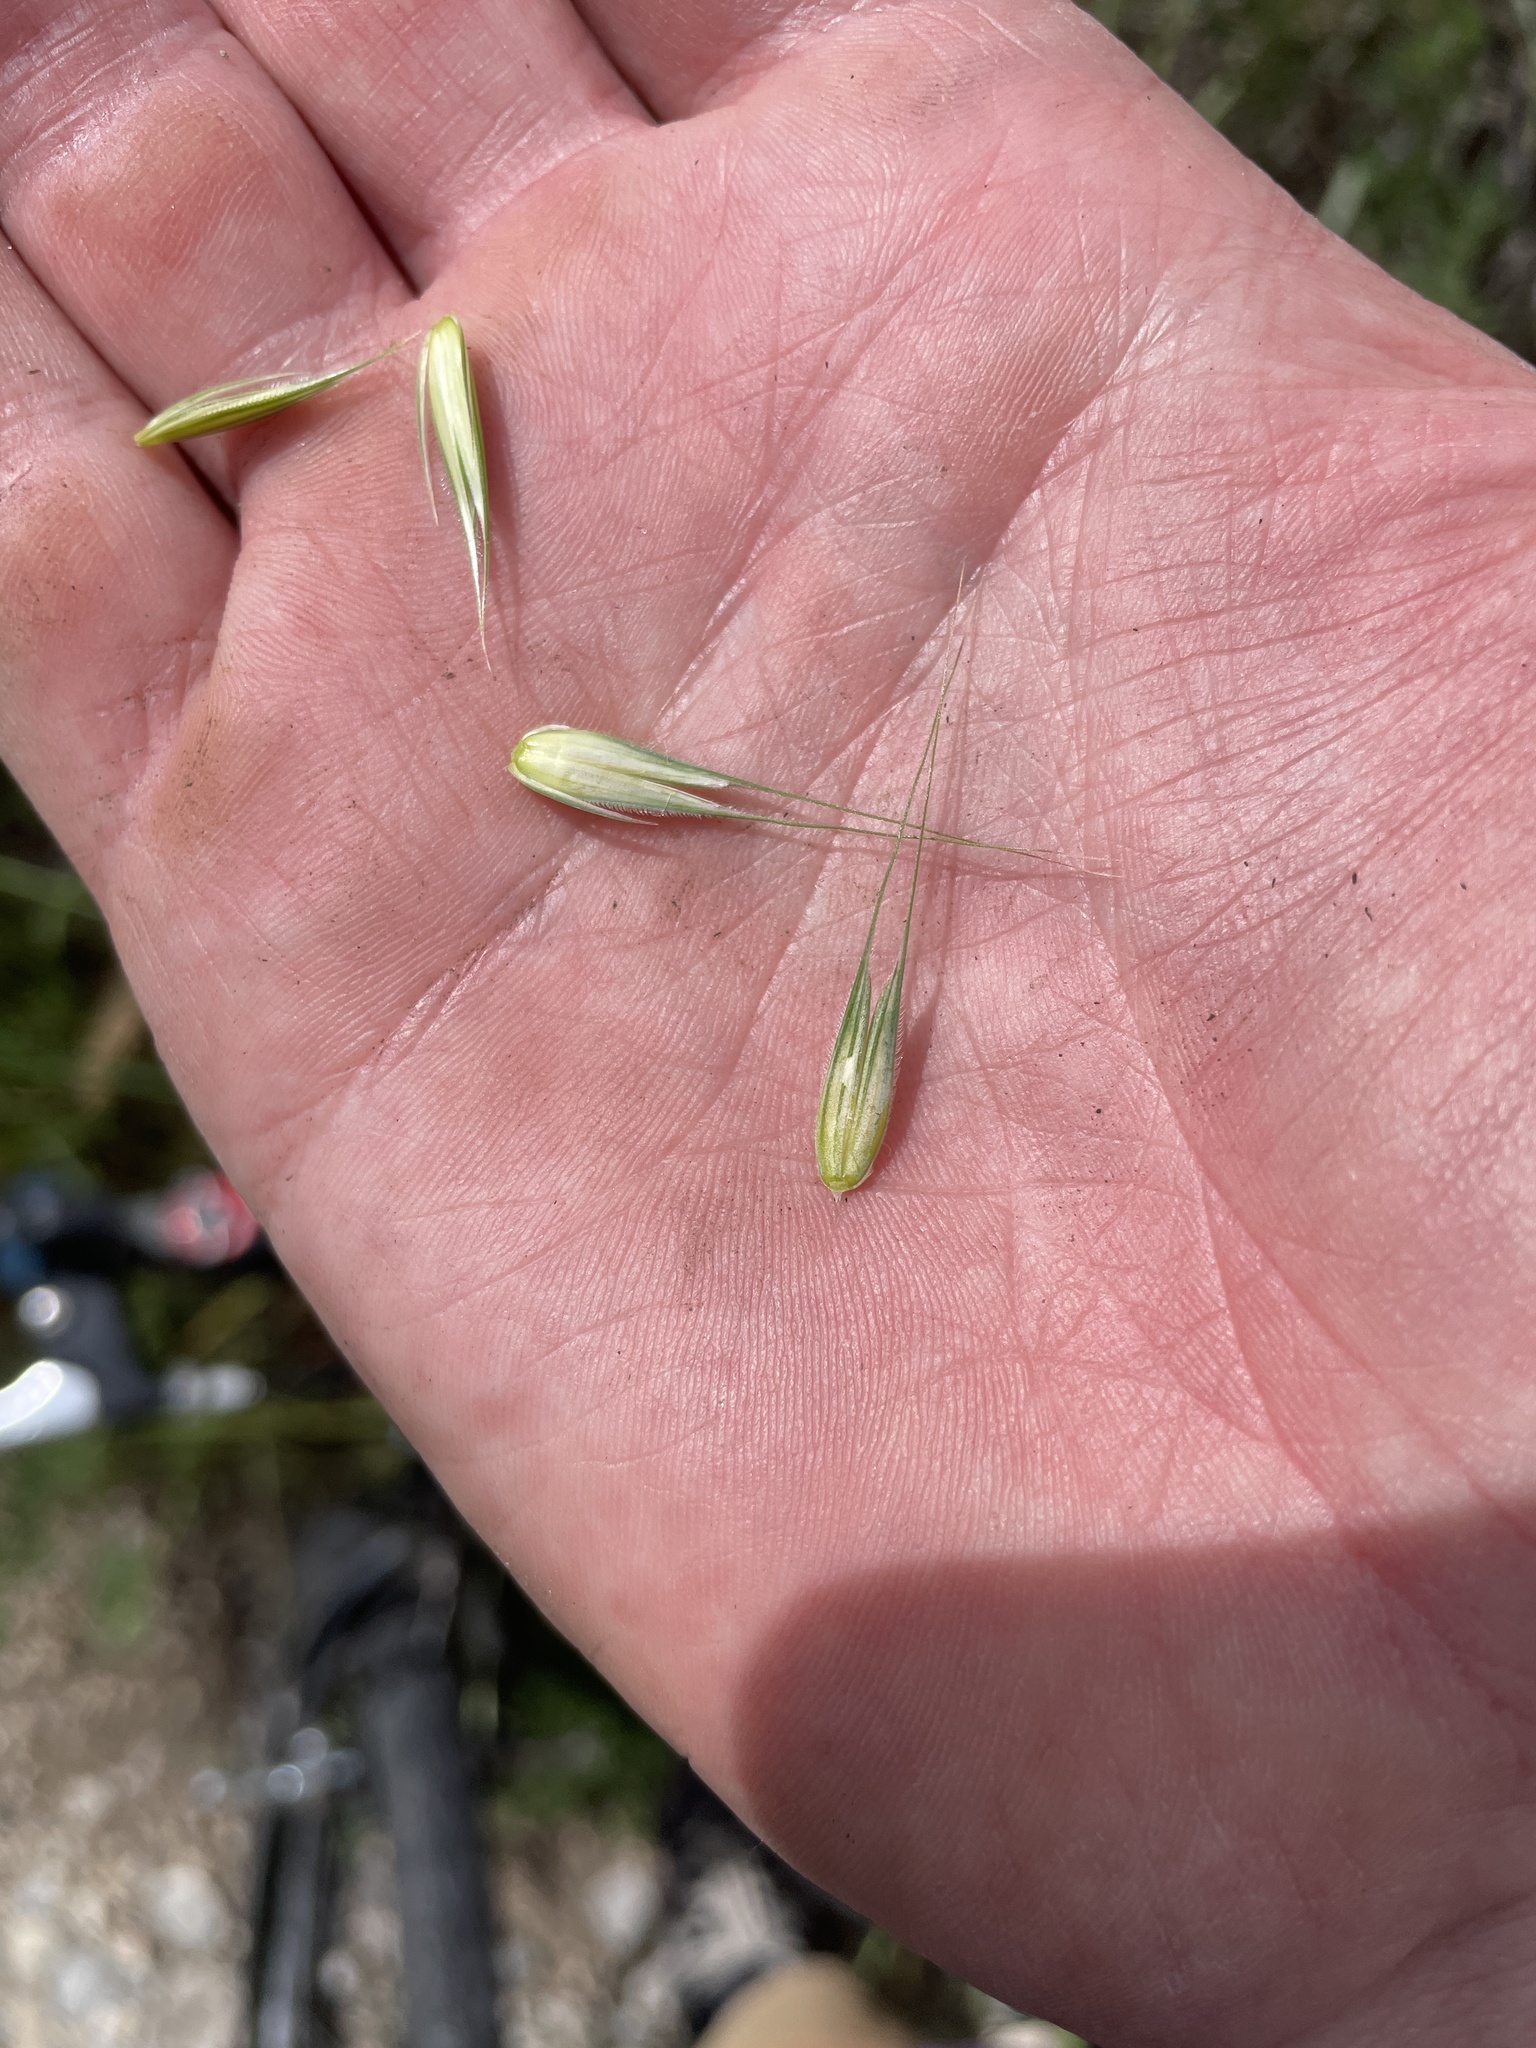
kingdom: Plantae
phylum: Tracheophyta
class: Liliopsida
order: Poales
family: Poaceae
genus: Secale
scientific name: Secale cereale
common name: Rye
